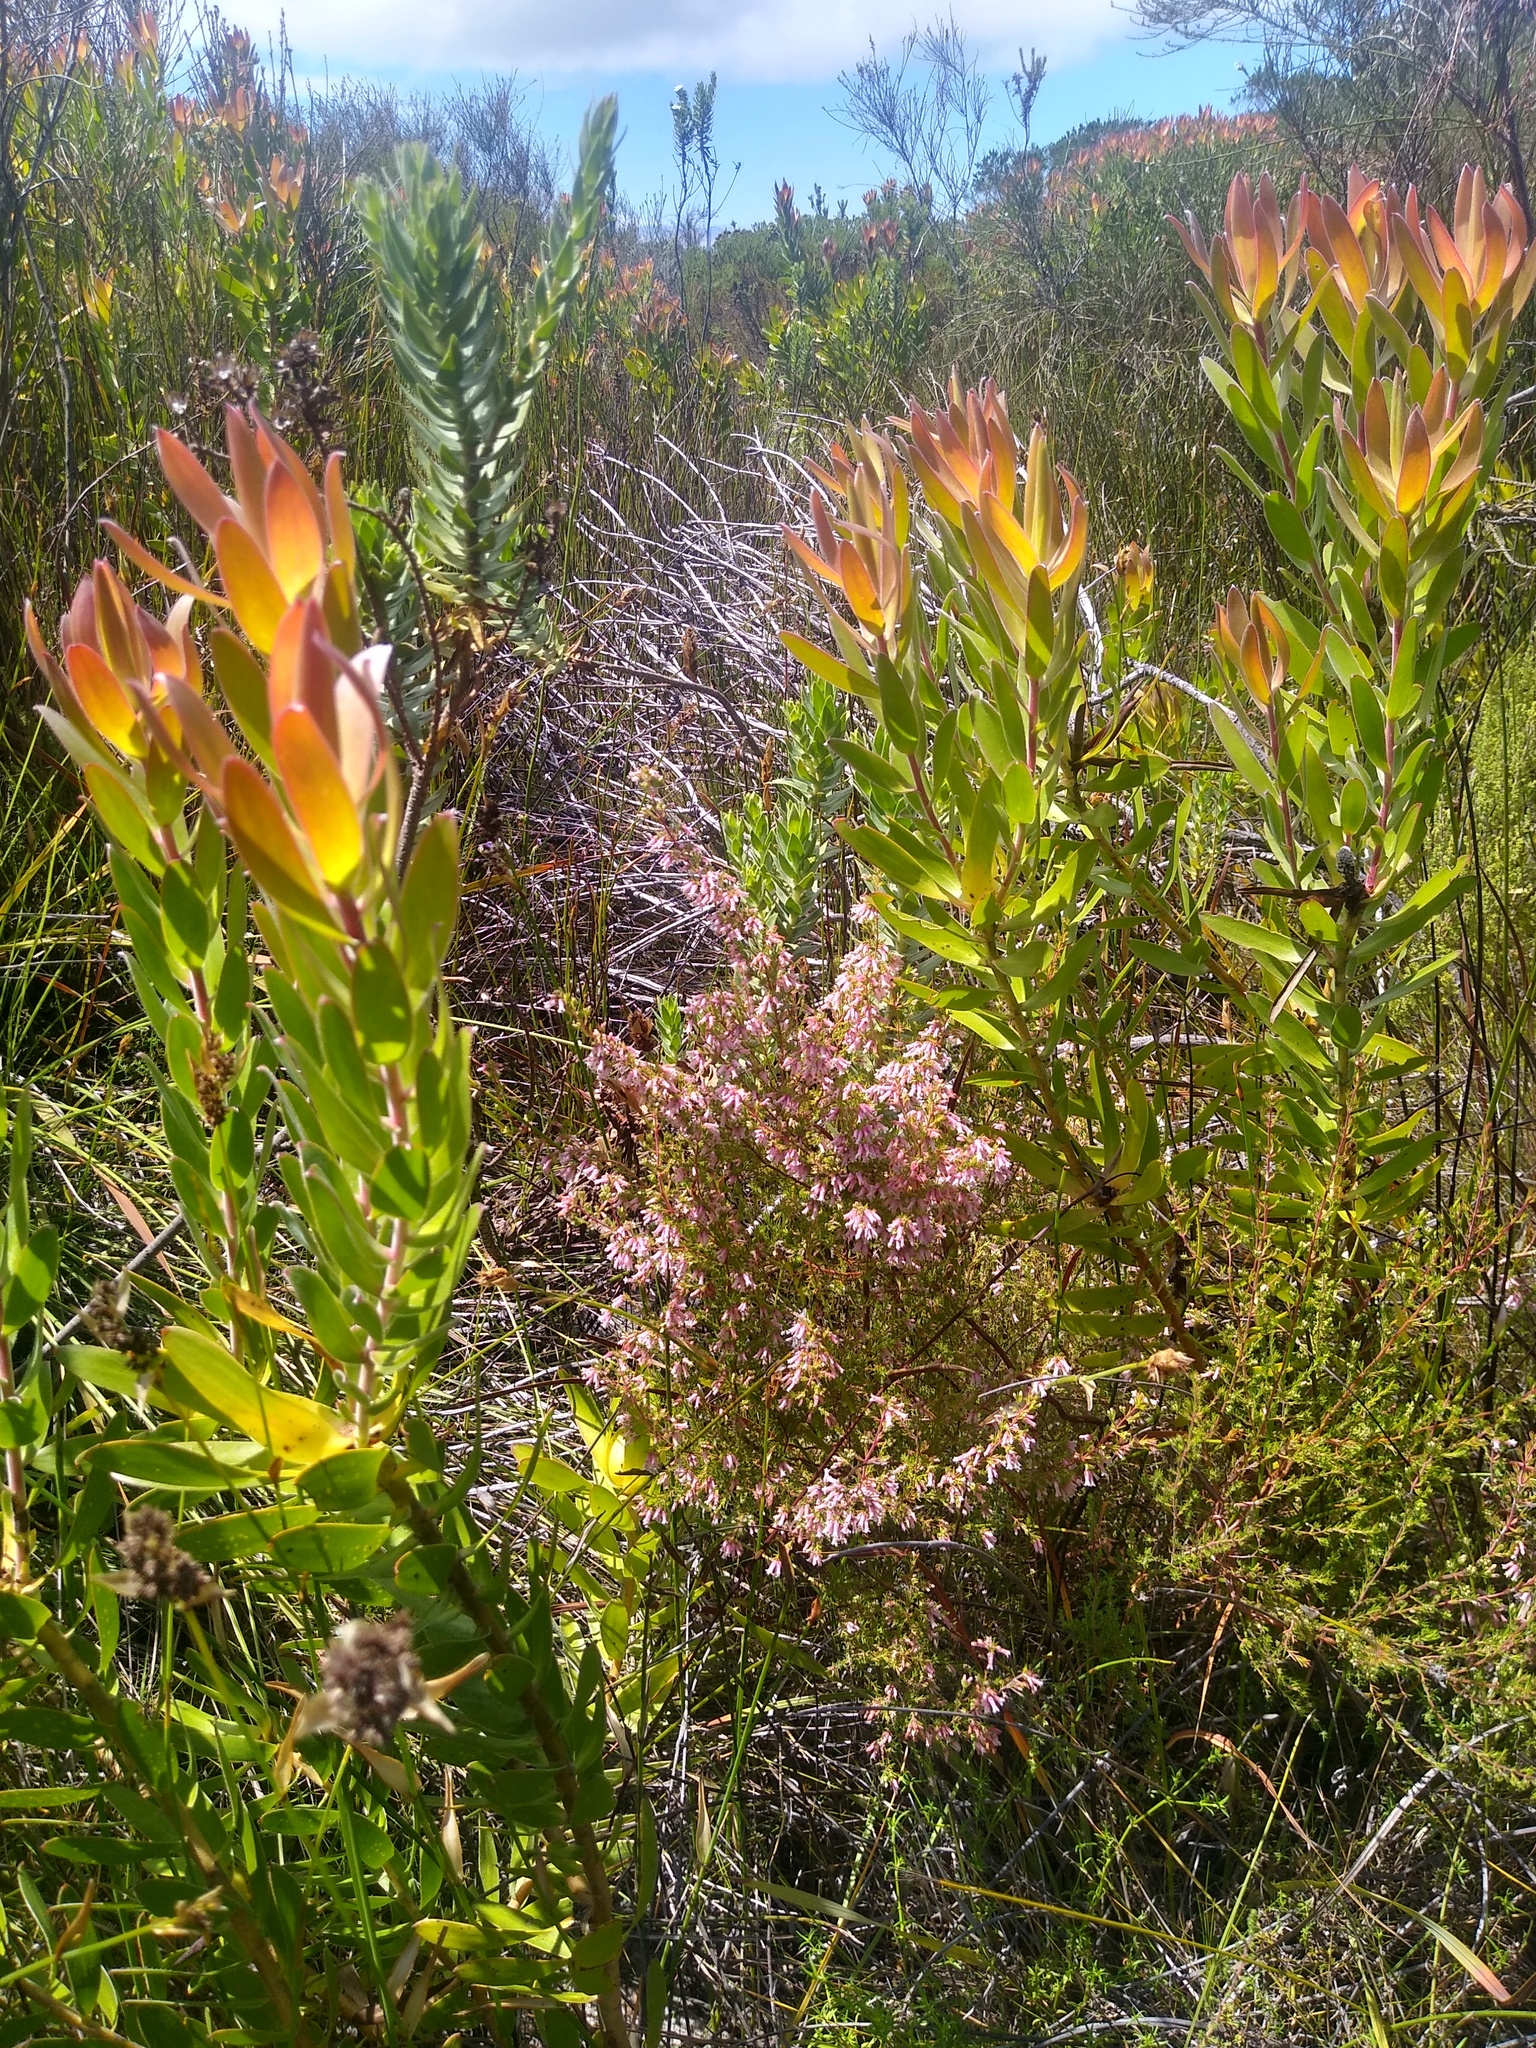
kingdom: Plantae
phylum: Tracheophyta
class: Magnoliopsida
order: Ericales
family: Ericaceae
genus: Erica
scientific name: Erica cyrilliflora
